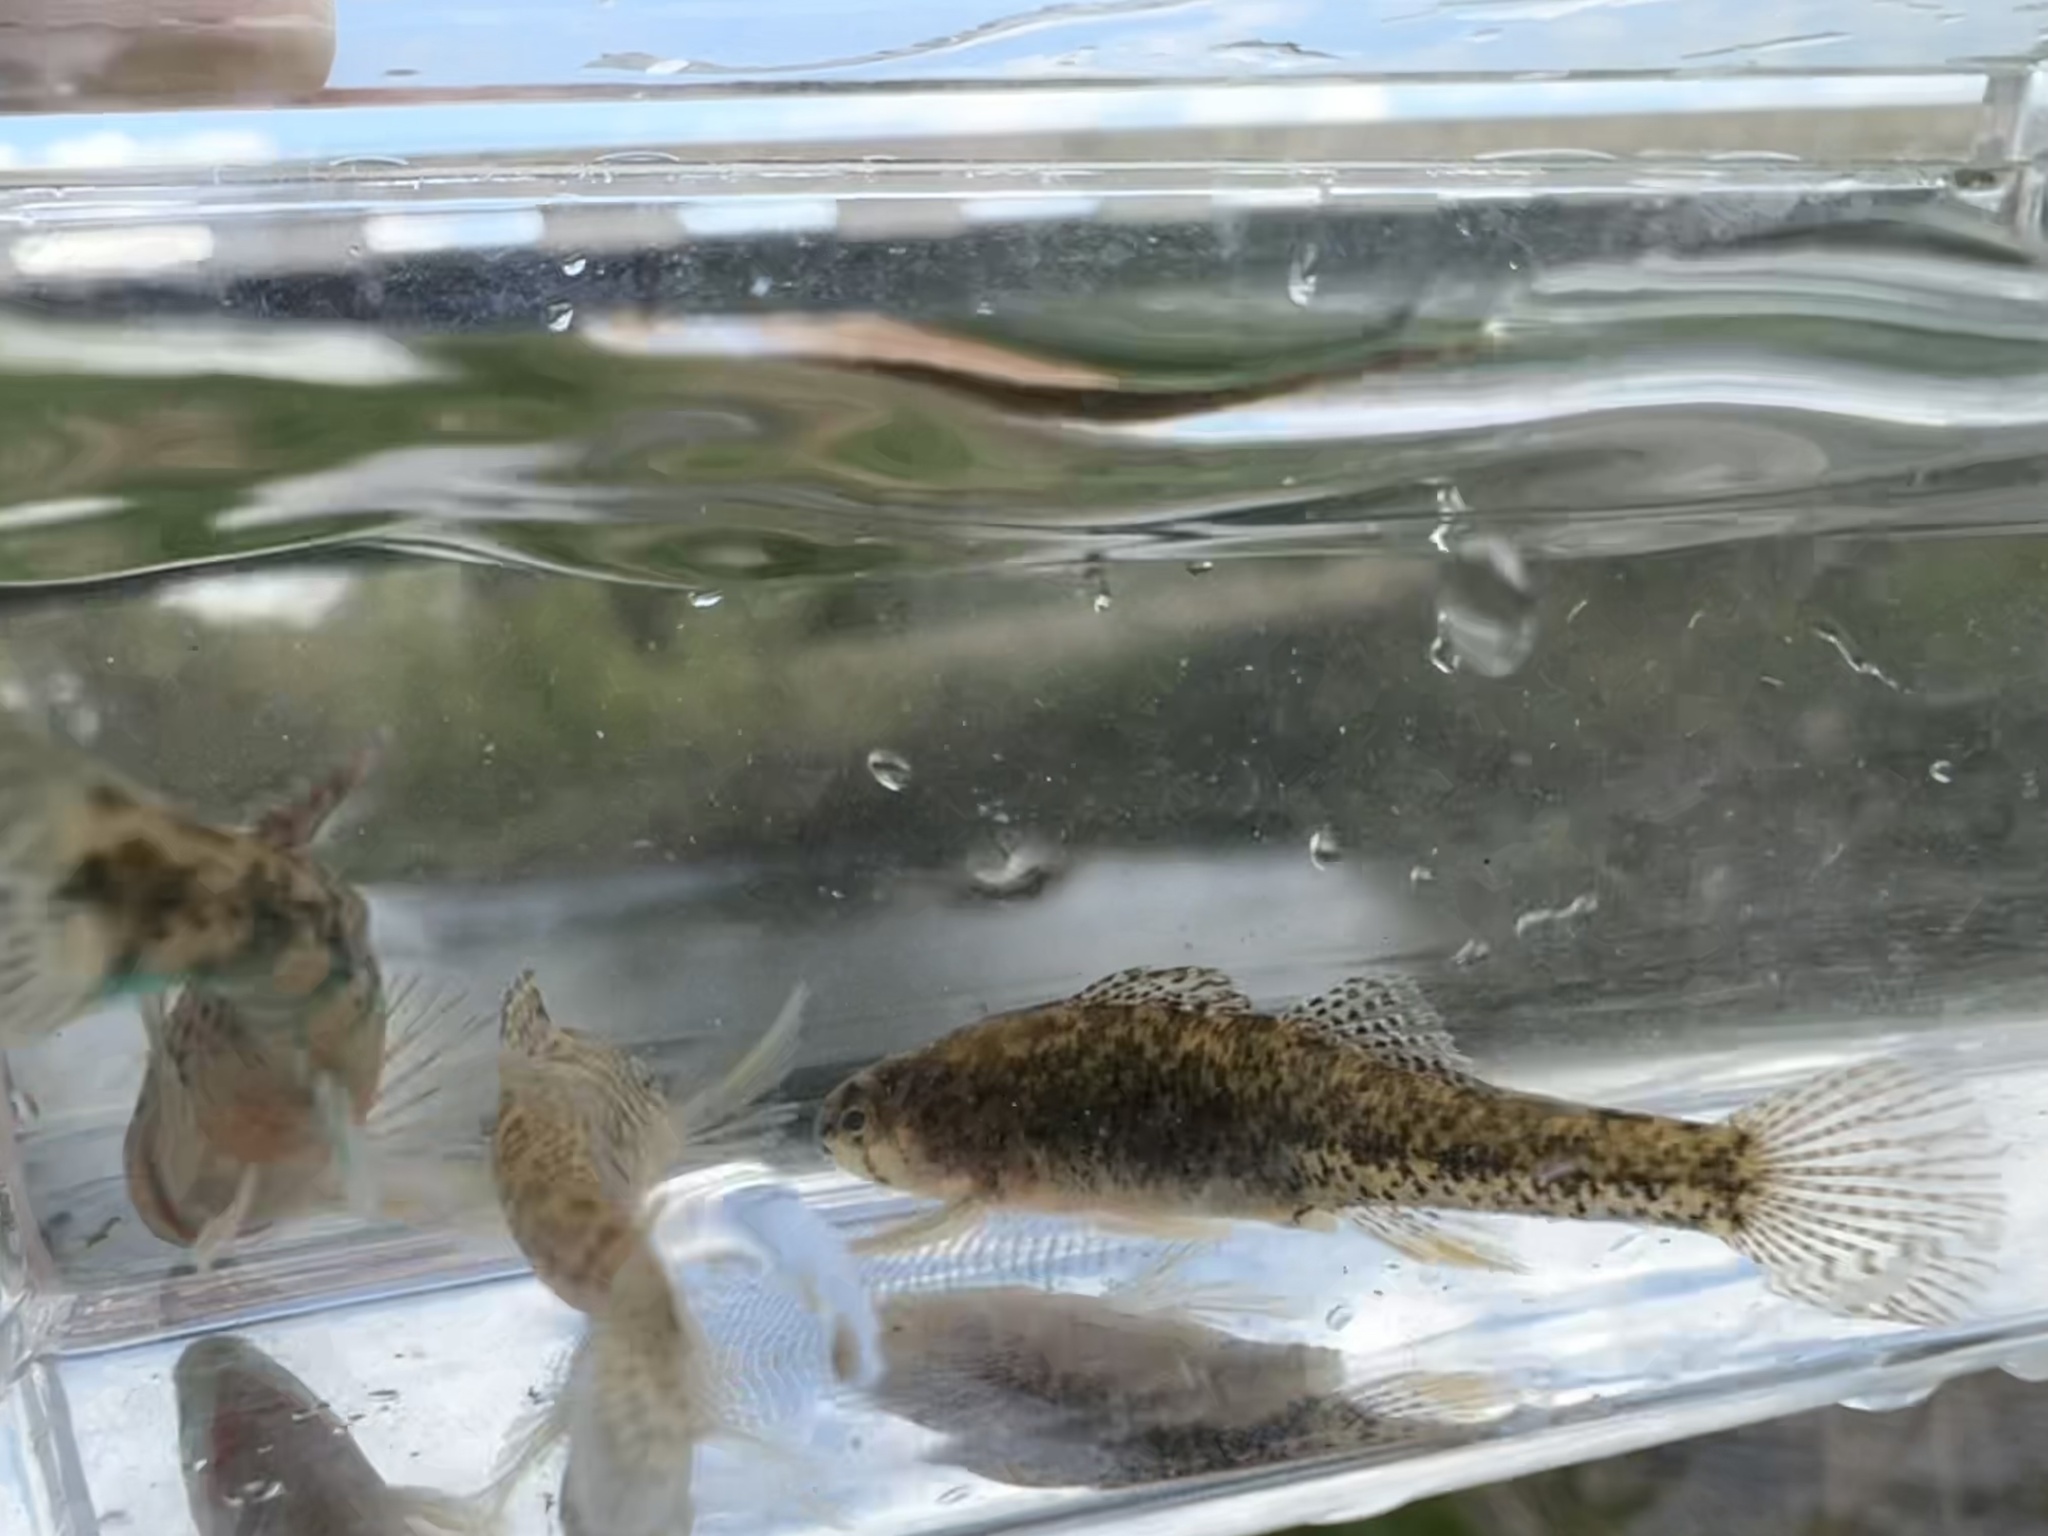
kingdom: Animalia
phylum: Chordata
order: Perciformes
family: Percidae
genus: Etheostoma
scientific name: Etheostoma microperca
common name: Least darter
